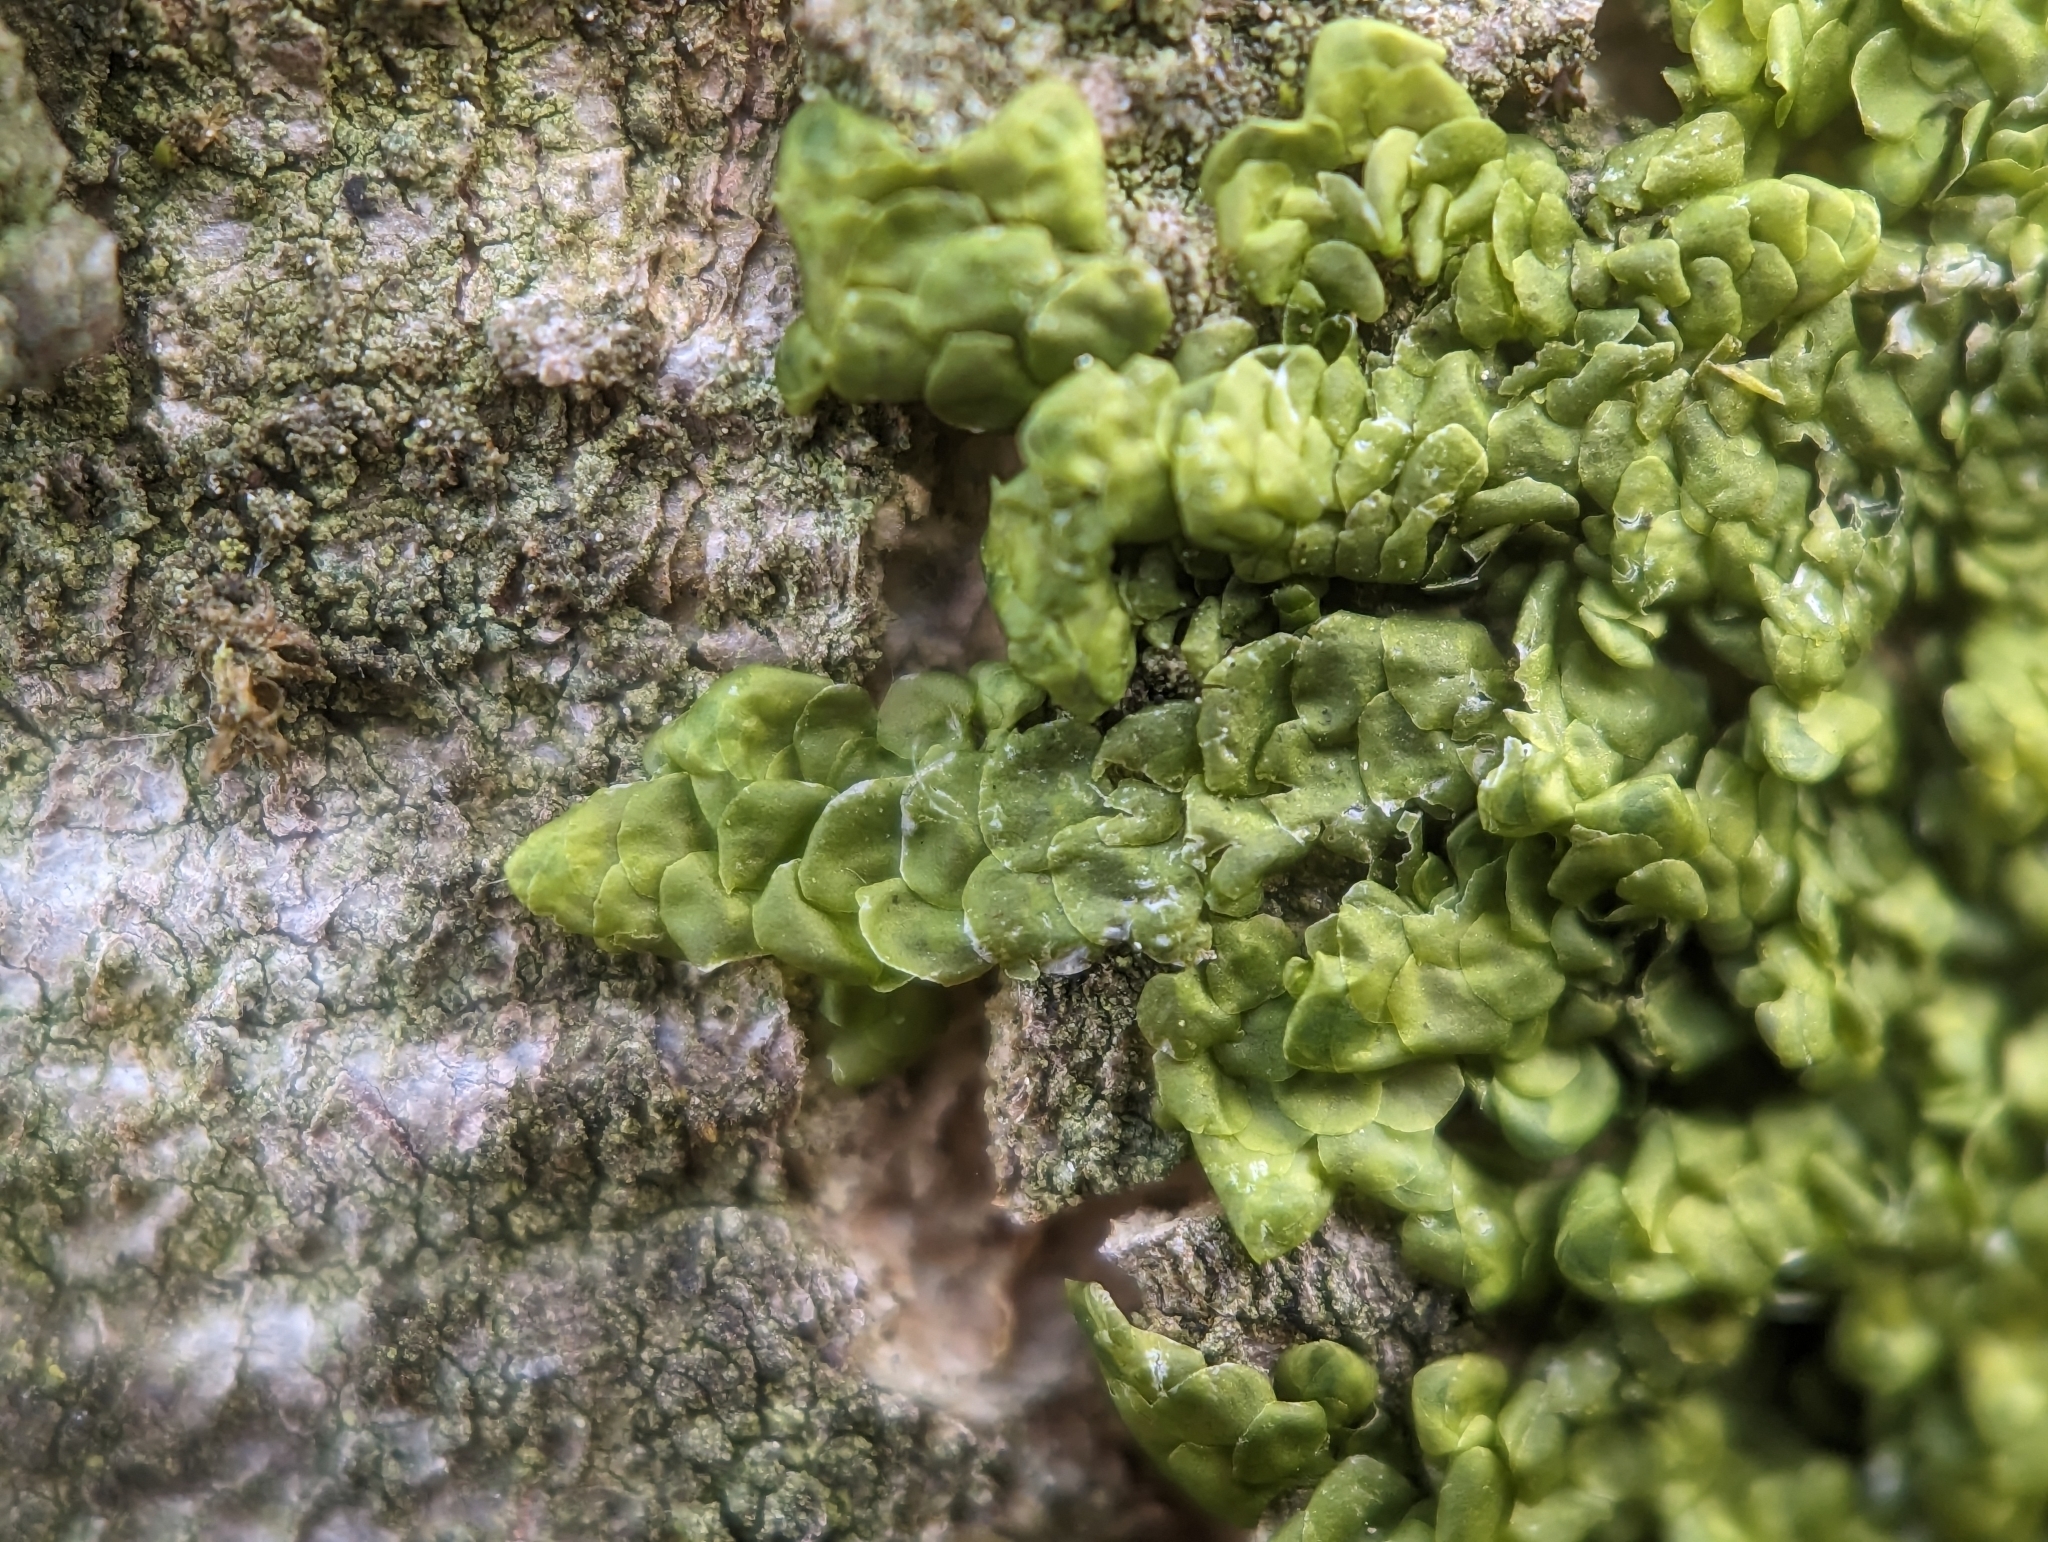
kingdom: Plantae
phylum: Marchantiophyta
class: Jungermanniopsida
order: Porellales
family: Radulaceae
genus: Radula
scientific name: Radula complanata
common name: Flat-leaved scalewort
